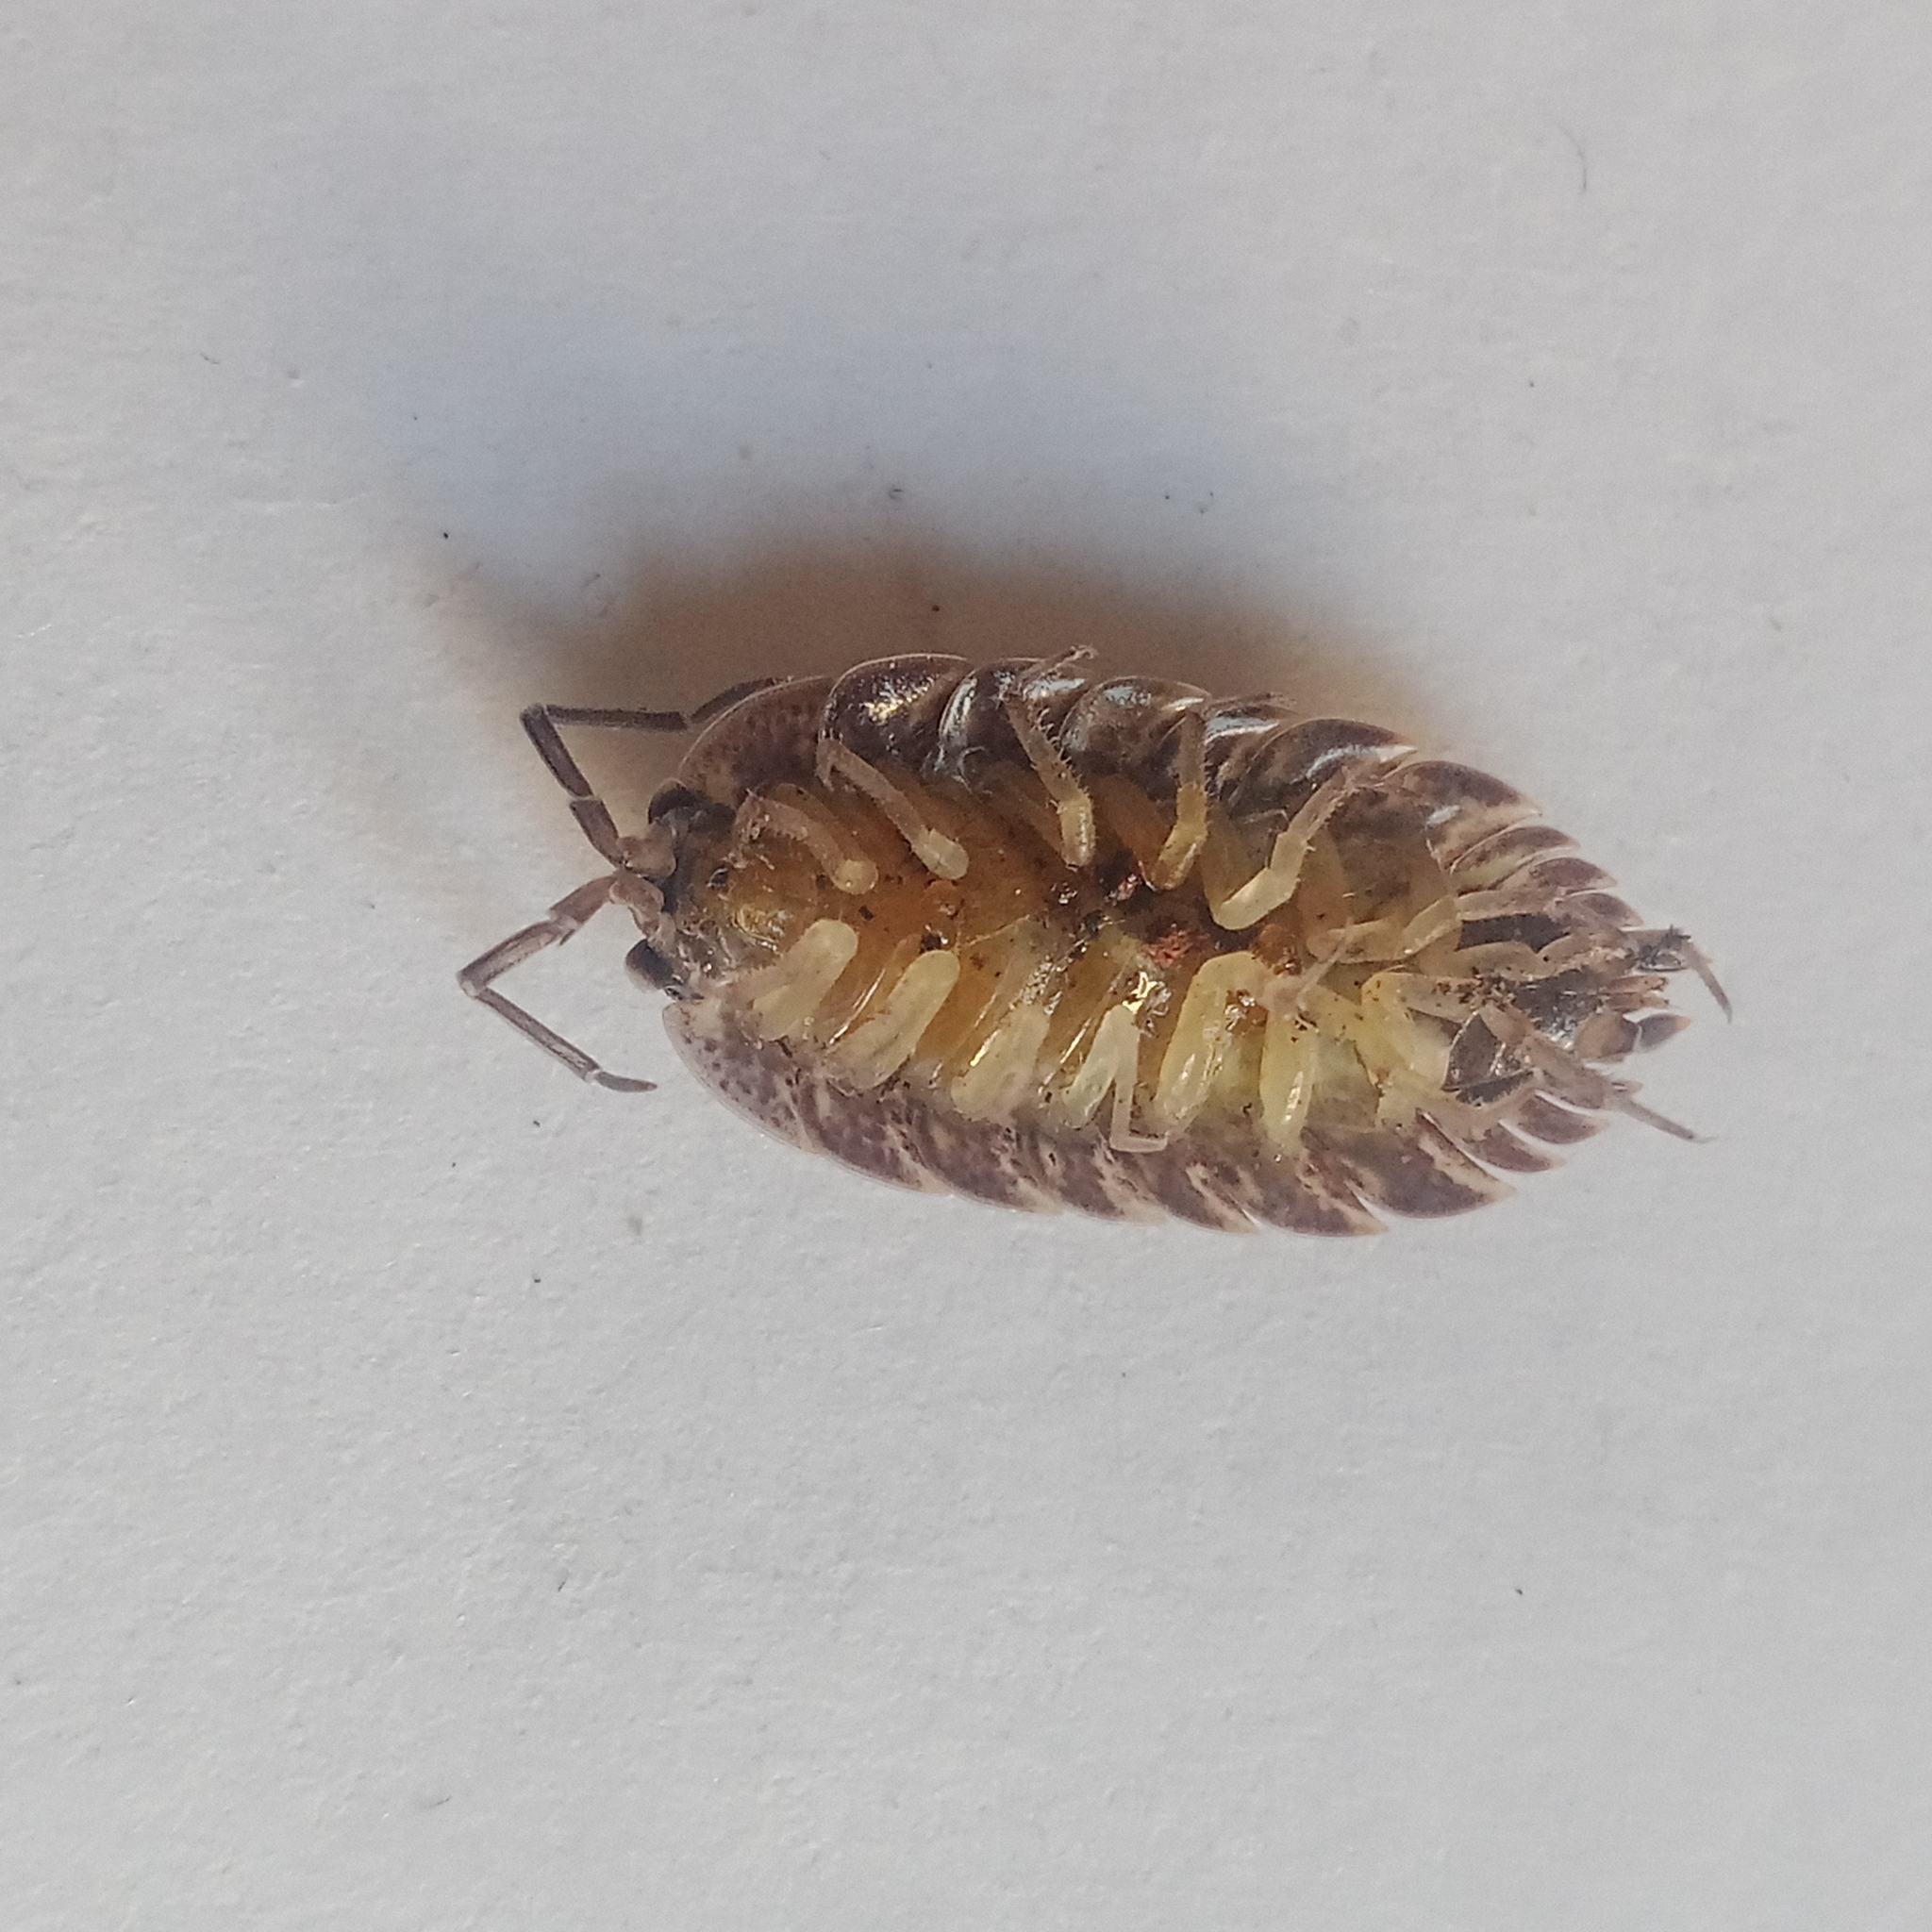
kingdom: Animalia
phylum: Arthropoda
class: Malacostraca
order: Isopoda
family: Porcellionidae
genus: Porcellio
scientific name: Porcellio spinicornis
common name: Painted woodlouse
